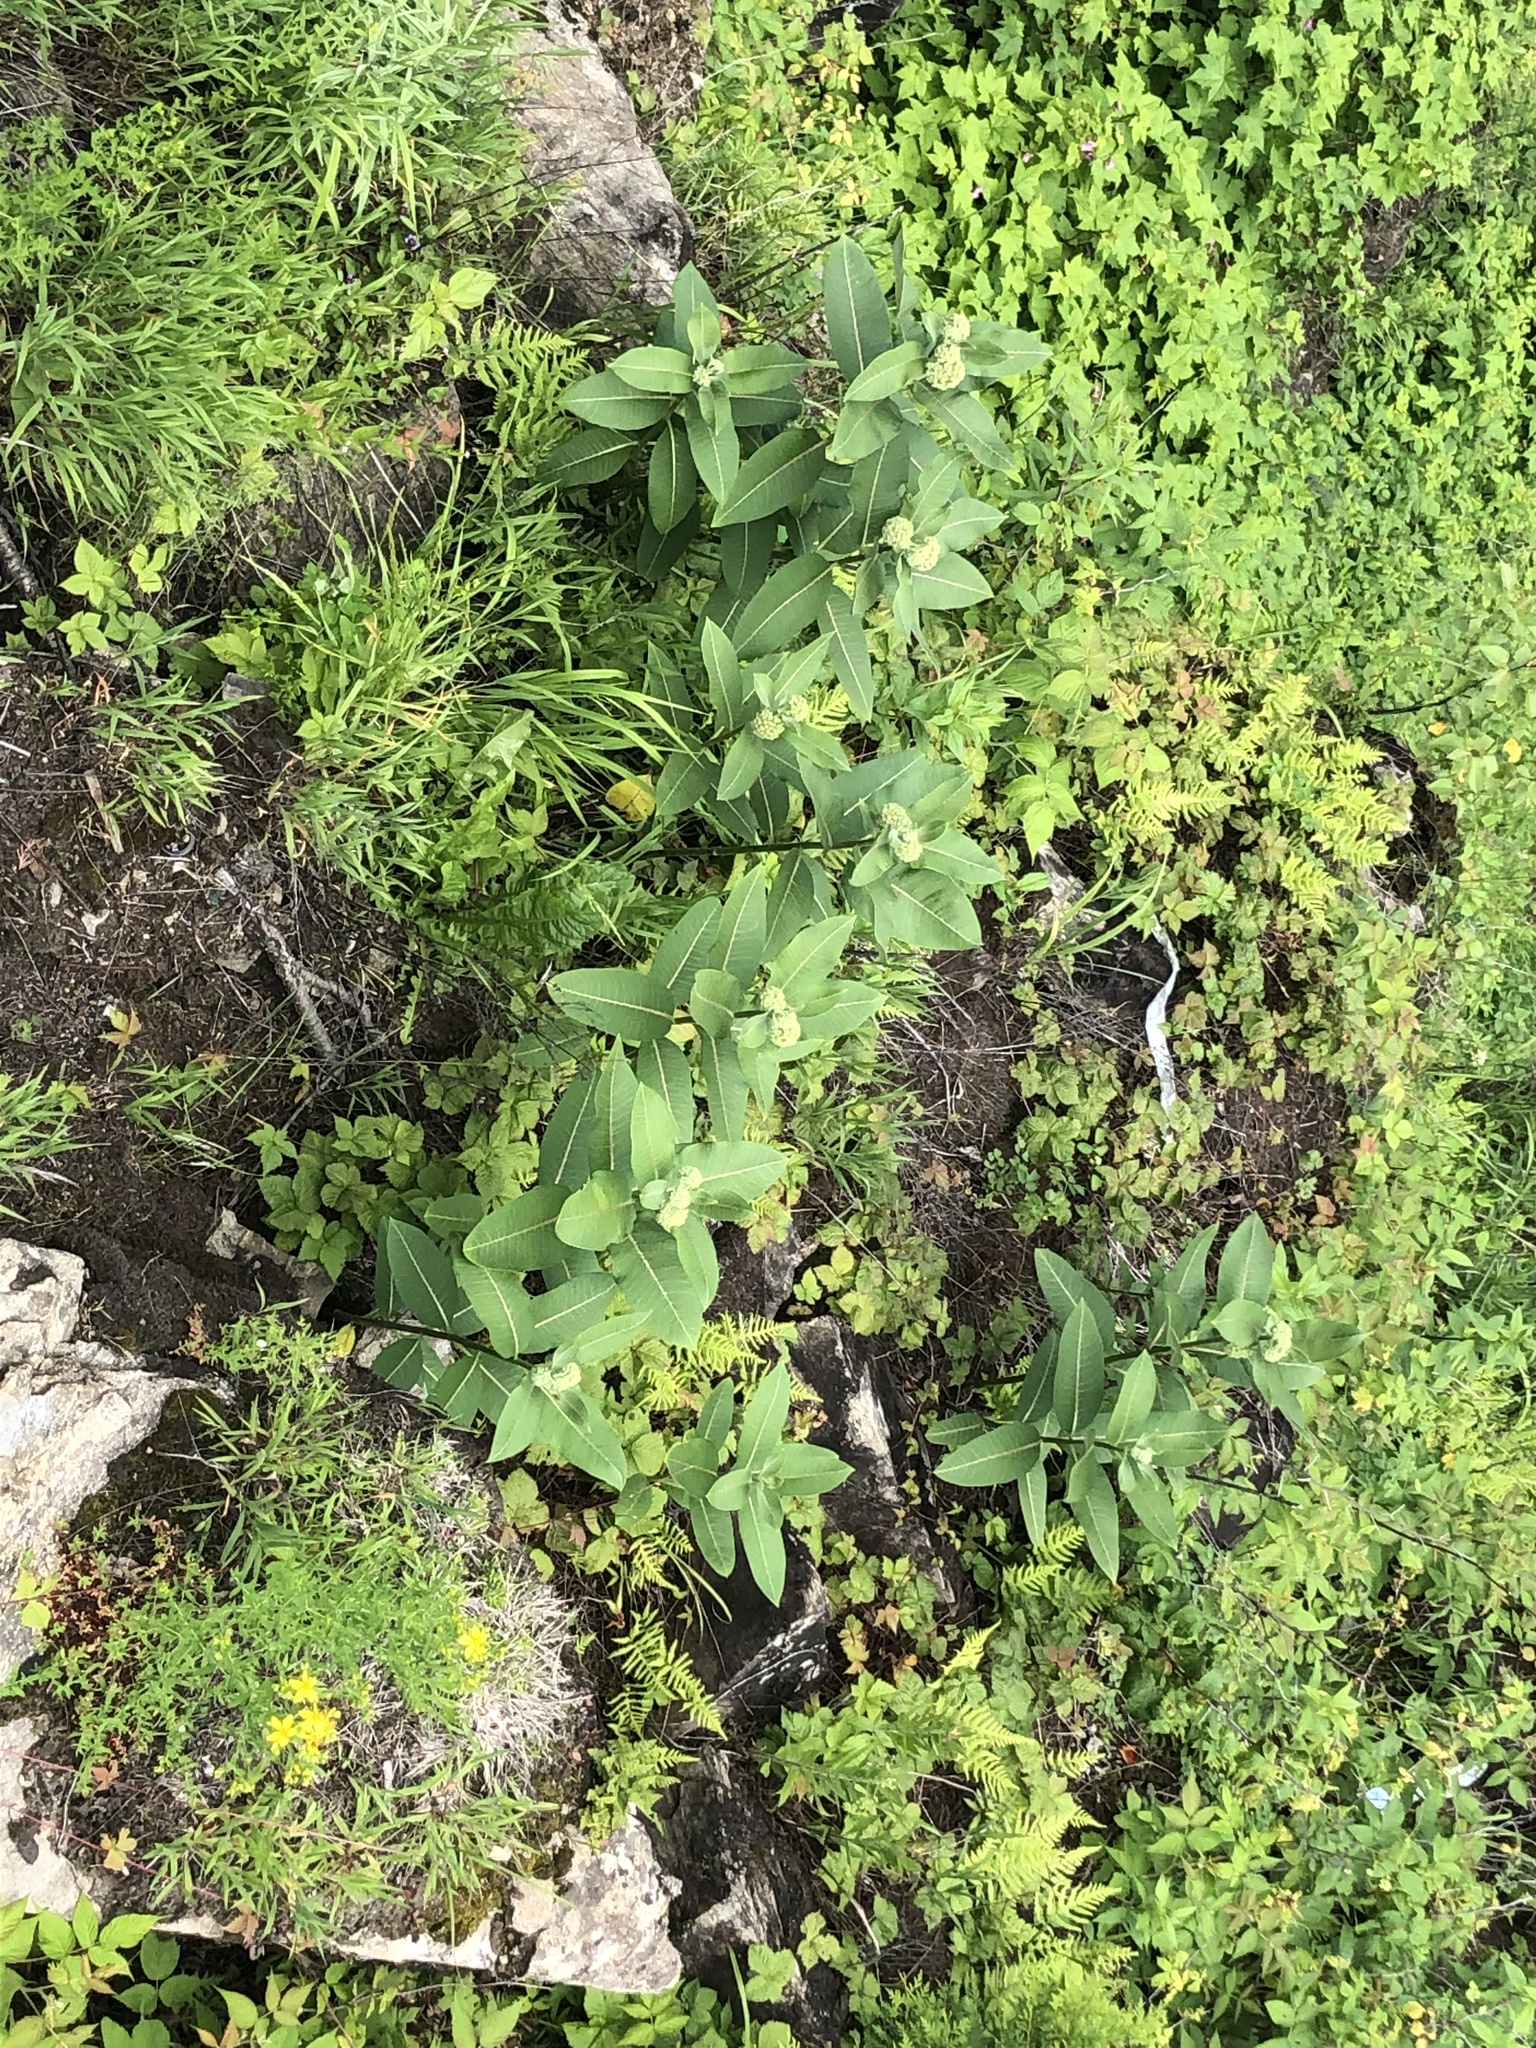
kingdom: Plantae
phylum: Tracheophyta
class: Magnoliopsida
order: Gentianales
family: Apocynaceae
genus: Asclepias
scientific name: Asclepias syriaca
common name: Common milkweed
